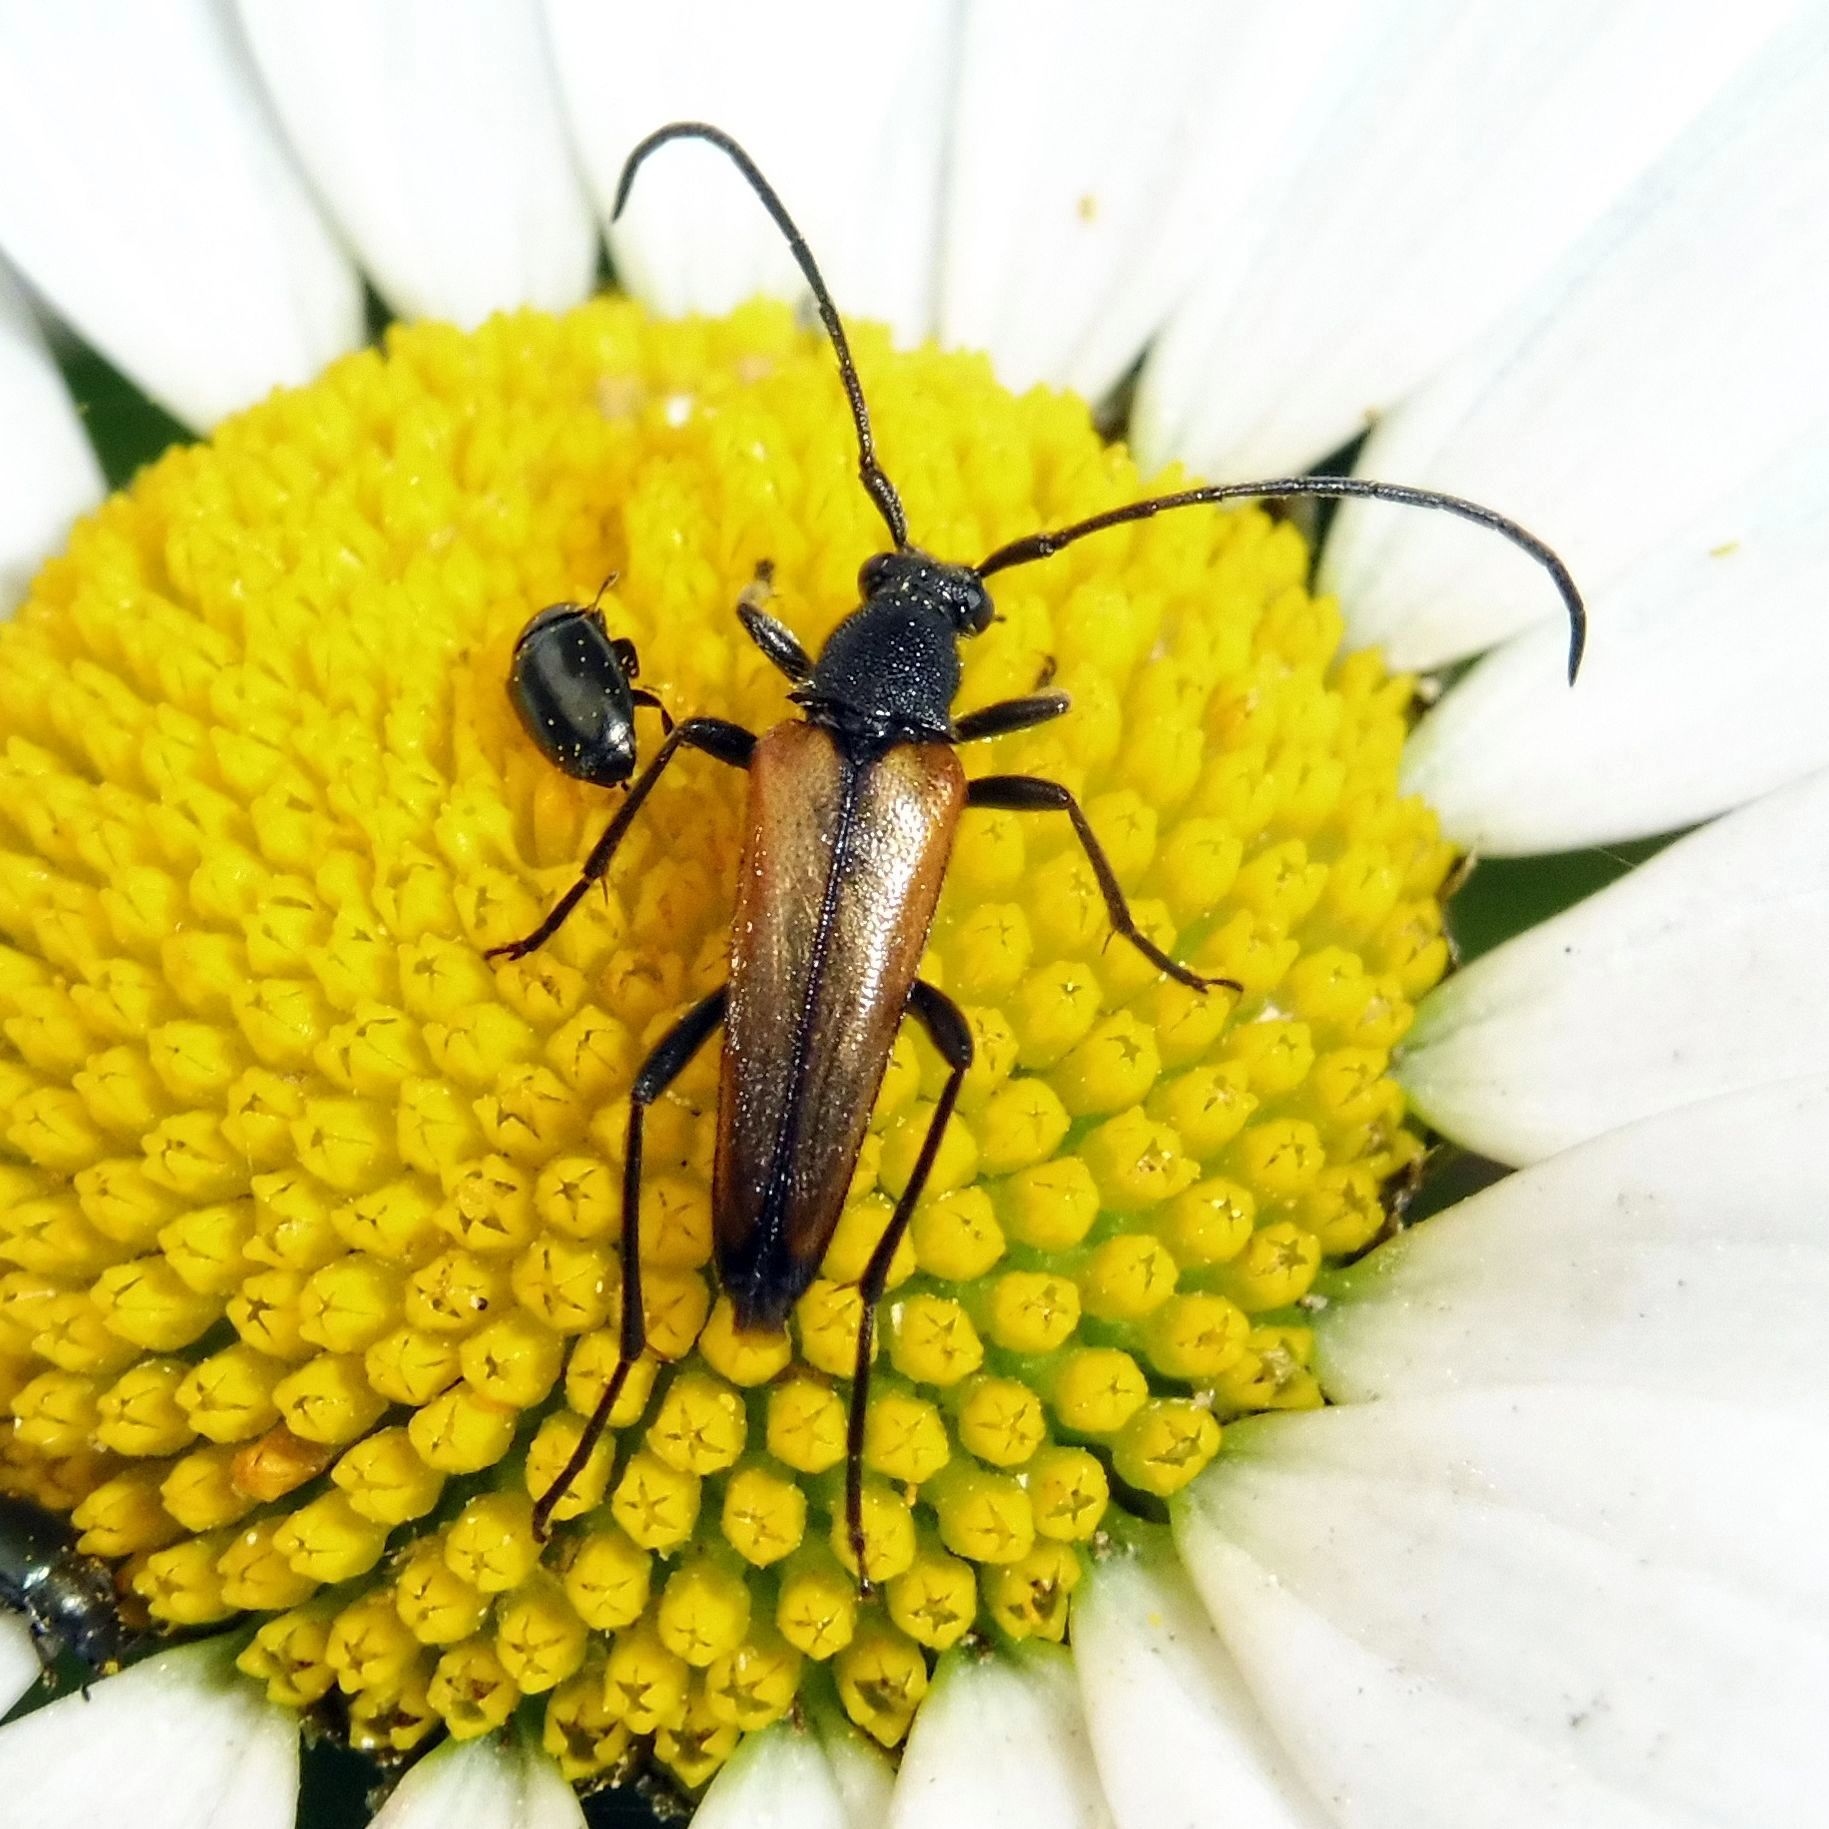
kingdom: Animalia
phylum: Arthropoda
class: Insecta
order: Coleoptera
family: Cerambycidae
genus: Stenurella
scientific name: Stenurella melanura
